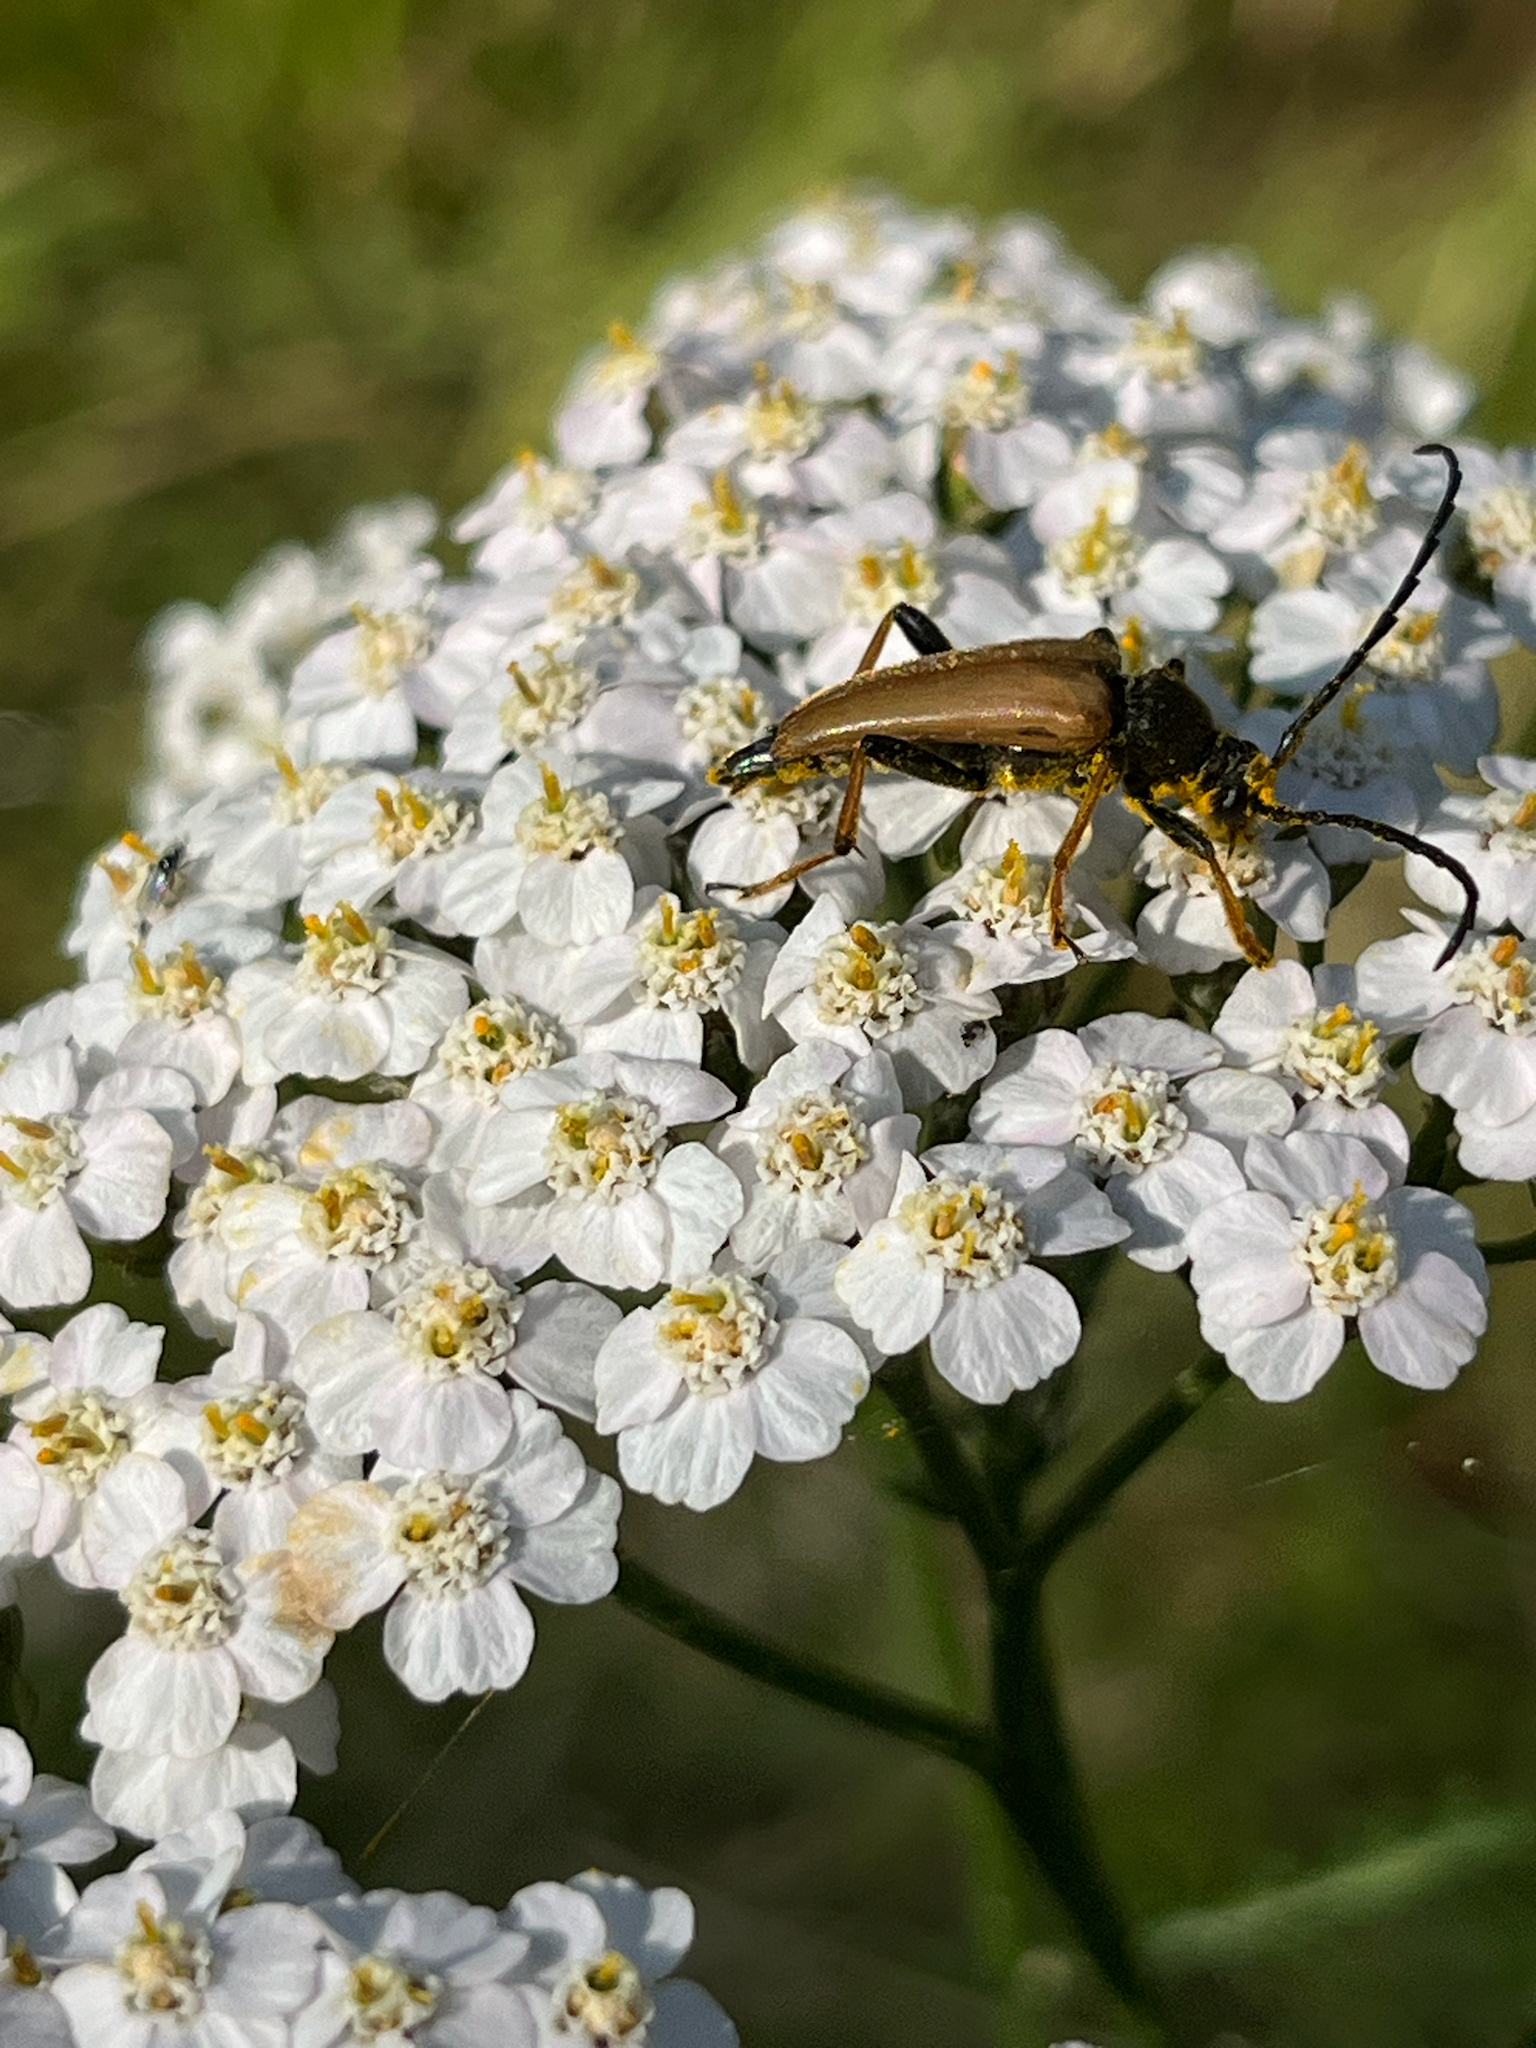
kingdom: Animalia
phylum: Arthropoda
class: Insecta
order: Coleoptera
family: Cerambycidae
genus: Stictoleptura
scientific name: Stictoleptura rubra
